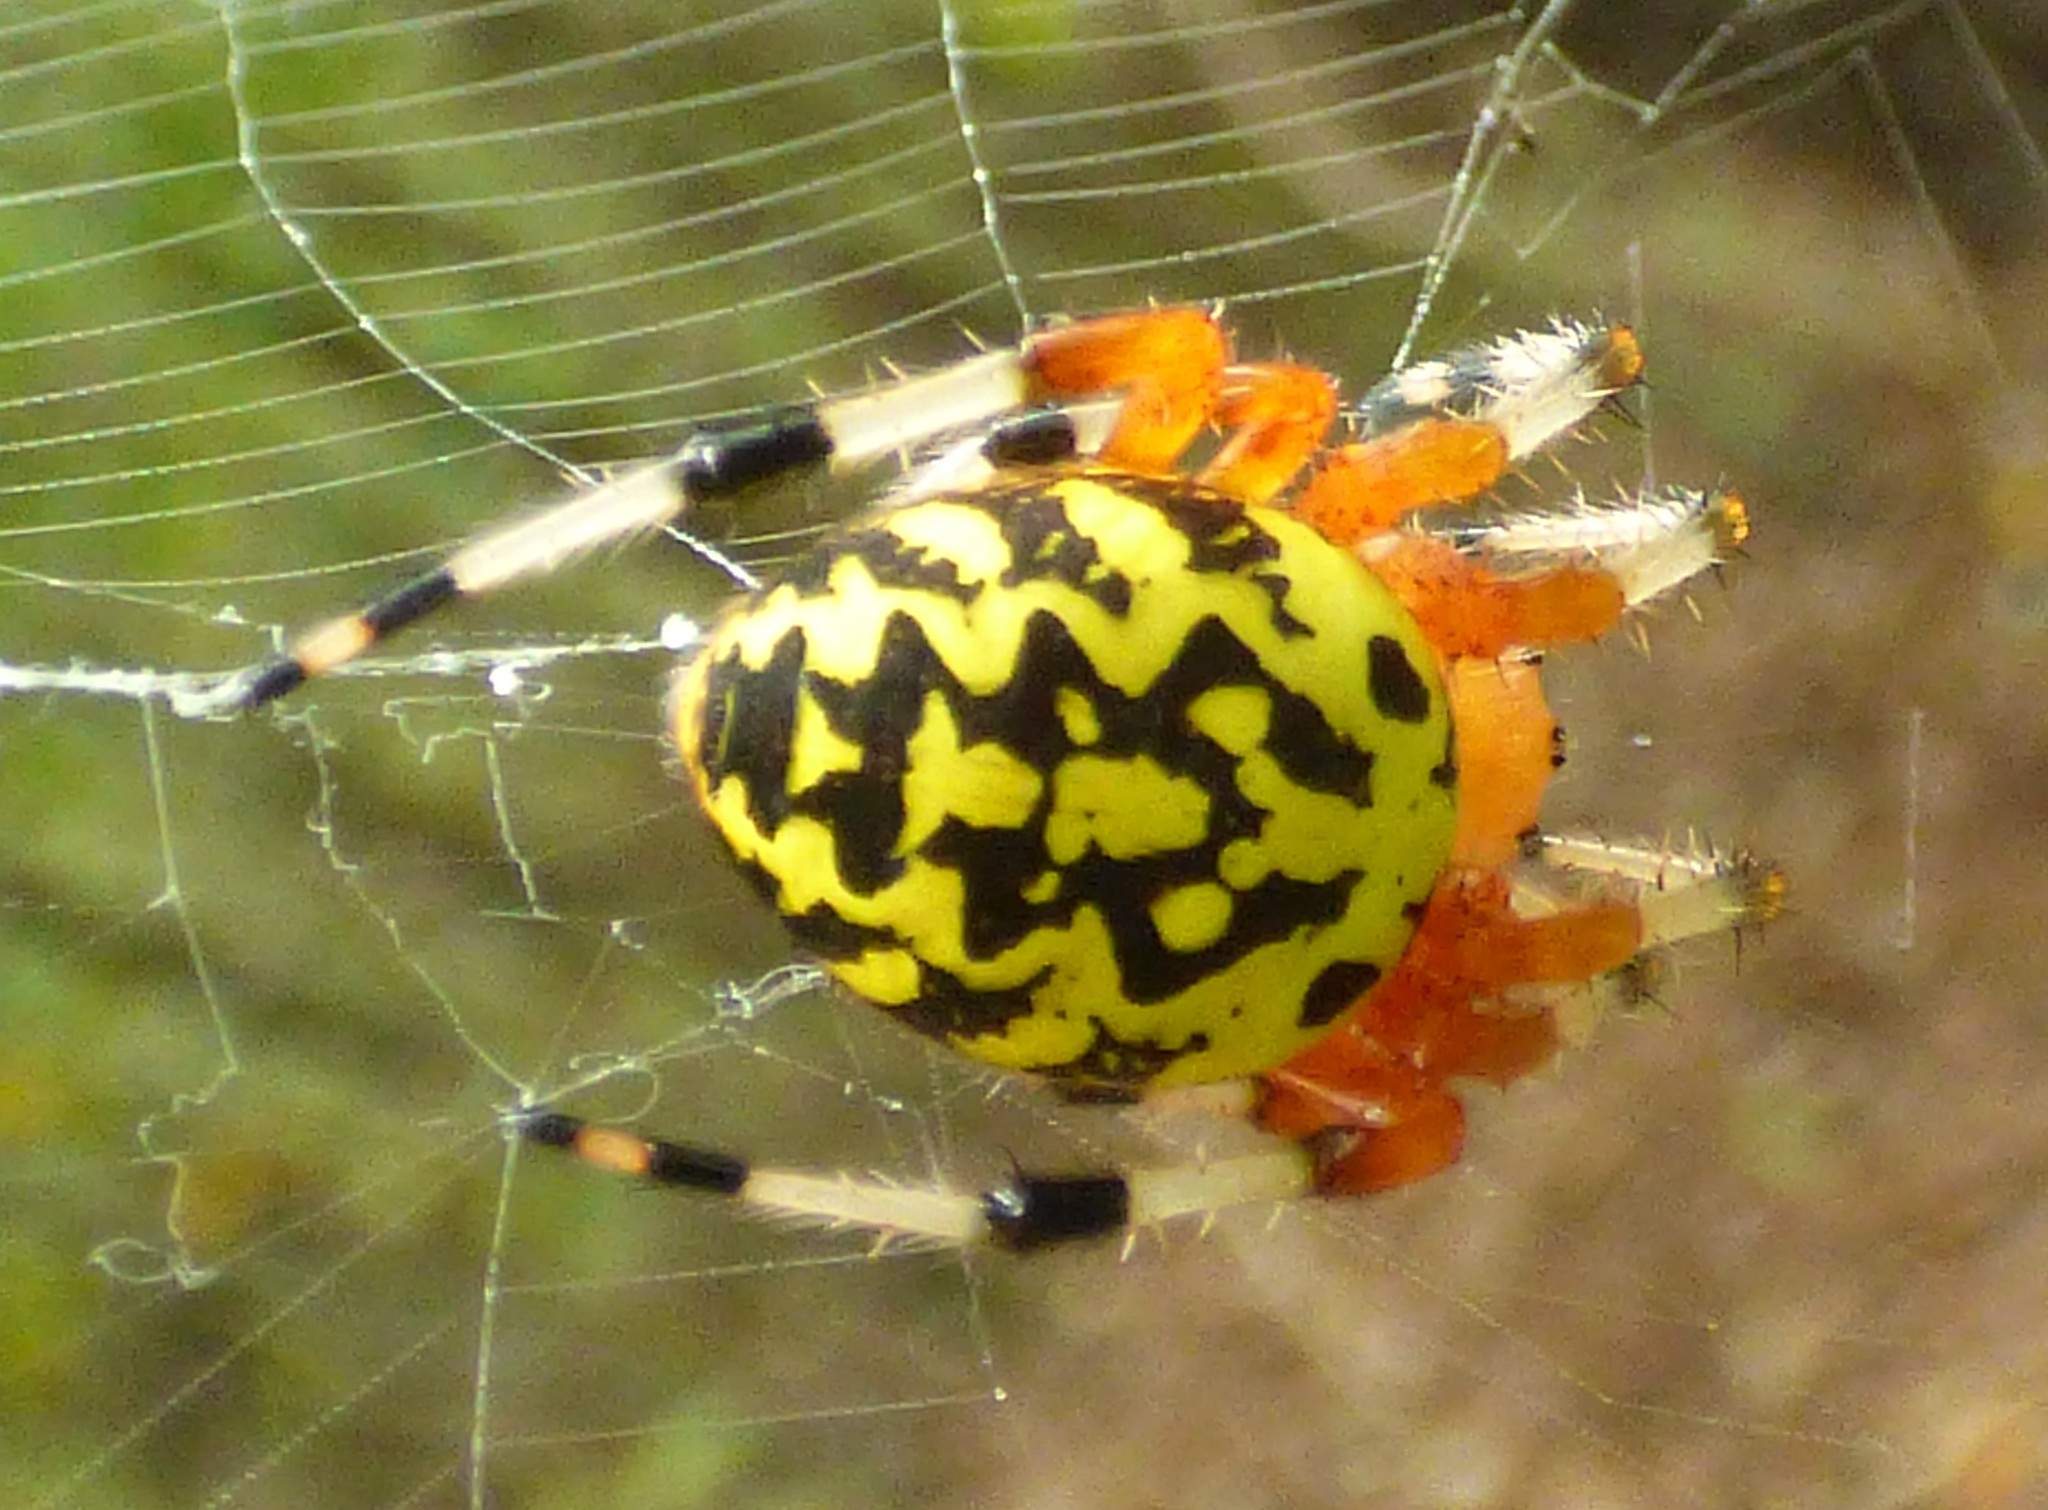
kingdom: Animalia
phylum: Arthropoda
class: Arachnida
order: Araneae
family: Araneidae
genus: Araneus
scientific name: Araneus marmoreus
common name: Marbled orbweaver
